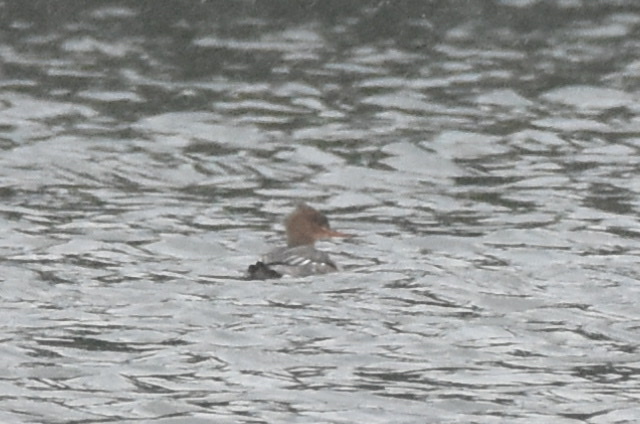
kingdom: Animalia
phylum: Chordata
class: Aves
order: Anseriformes
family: Anatidae
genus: Mergus
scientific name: Mergus serrator
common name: Red-breasted merganser
